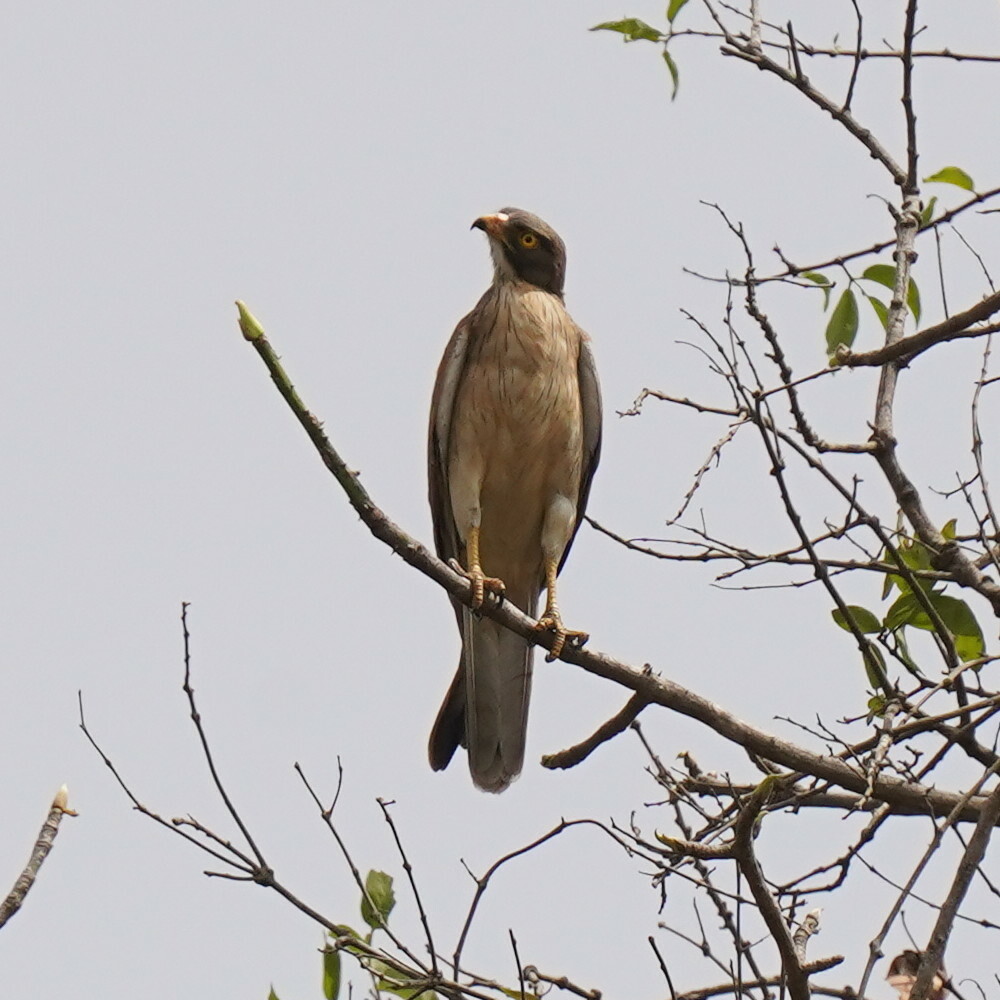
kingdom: Animalia
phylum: Chordata
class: Aves
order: Accipitriformes
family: Accipitridae
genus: Butastur
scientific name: Butastur rufipennis
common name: Grasshopper buzzard
